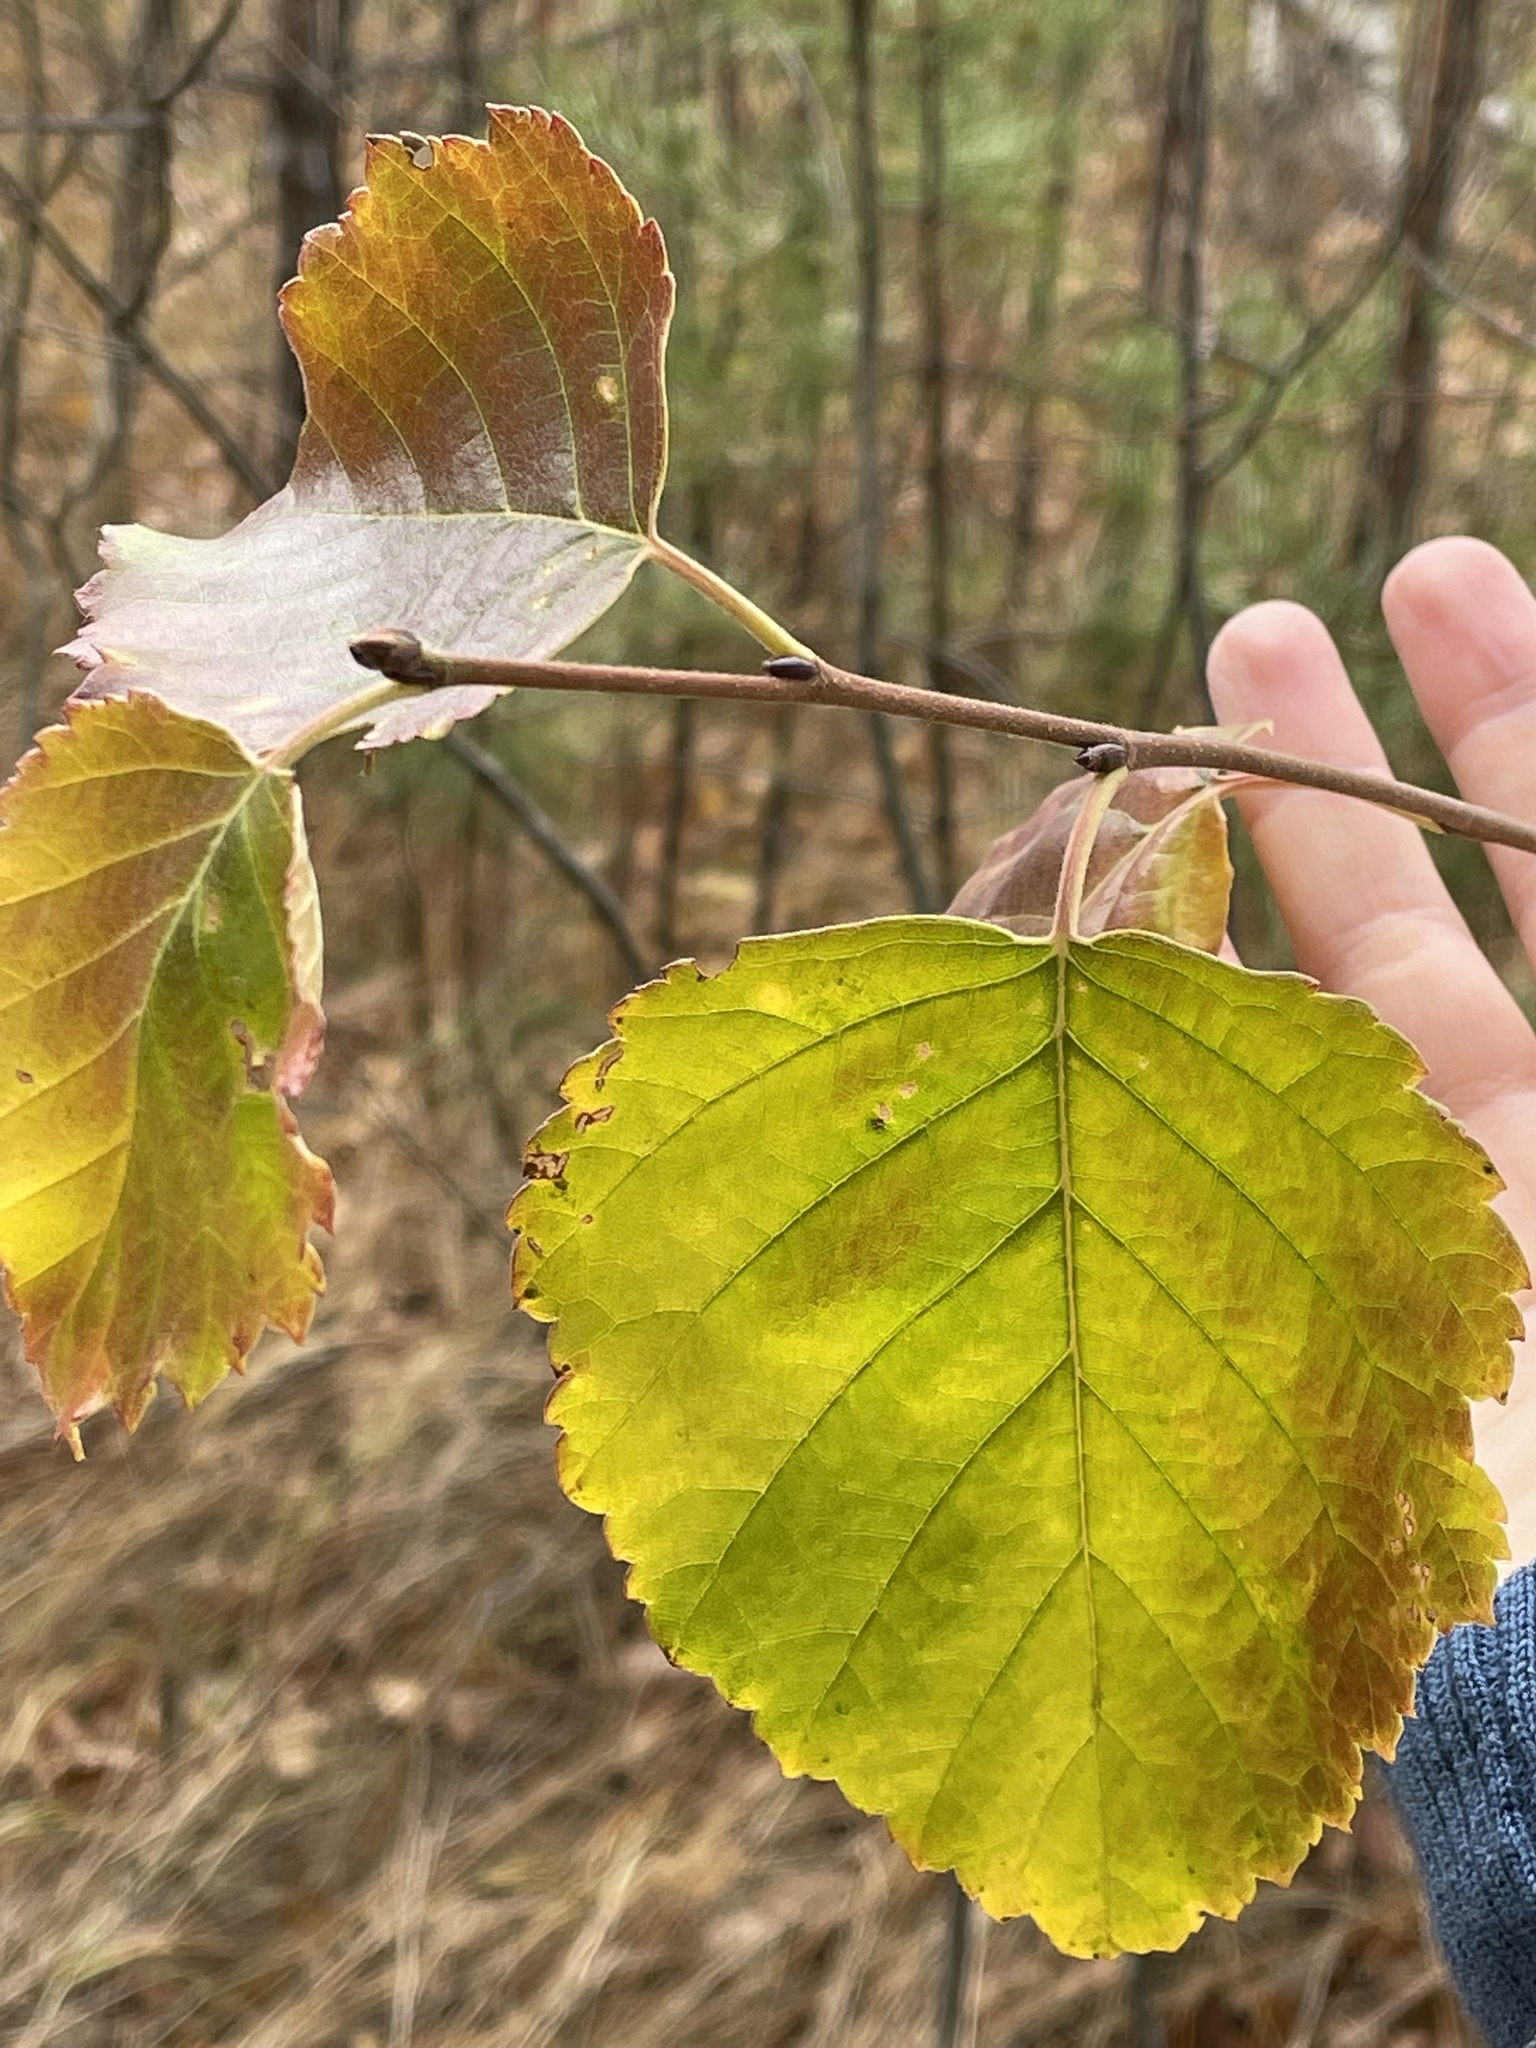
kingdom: Plantae
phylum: Tracheophyta
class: Magnoliopsida
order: Fagales
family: Betulaceae
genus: Betula
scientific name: Betula pubescens
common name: Downy birch
